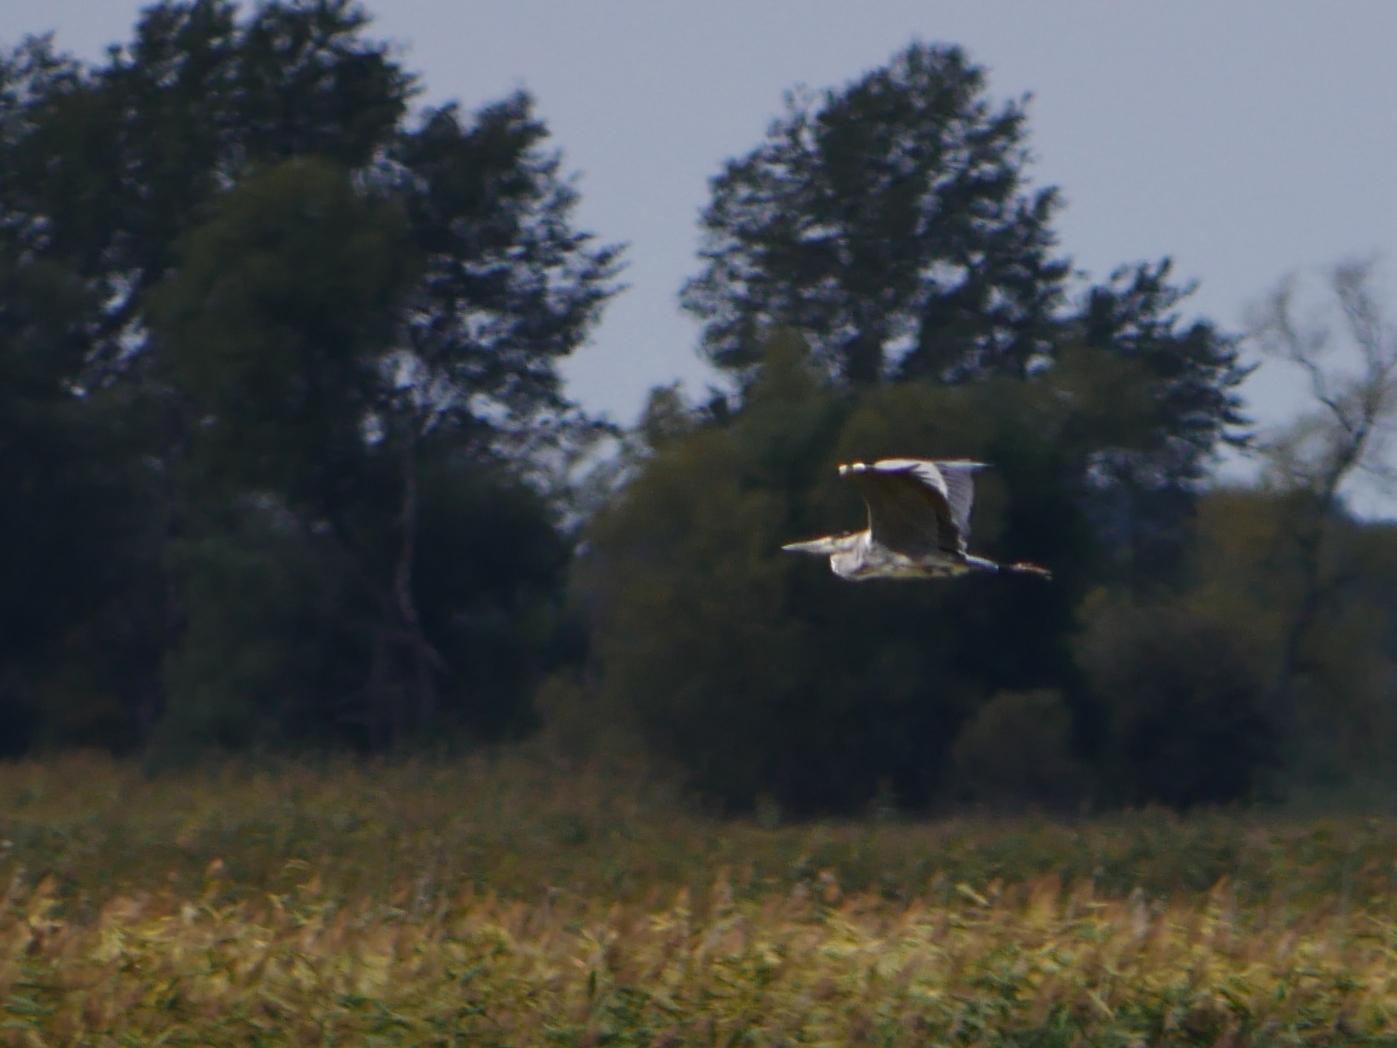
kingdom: Animalia
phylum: Chordata
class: Aves
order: Pelecaniformes
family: Ardeidae
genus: Ardea
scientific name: Ardea cinerea
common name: Grey heron
